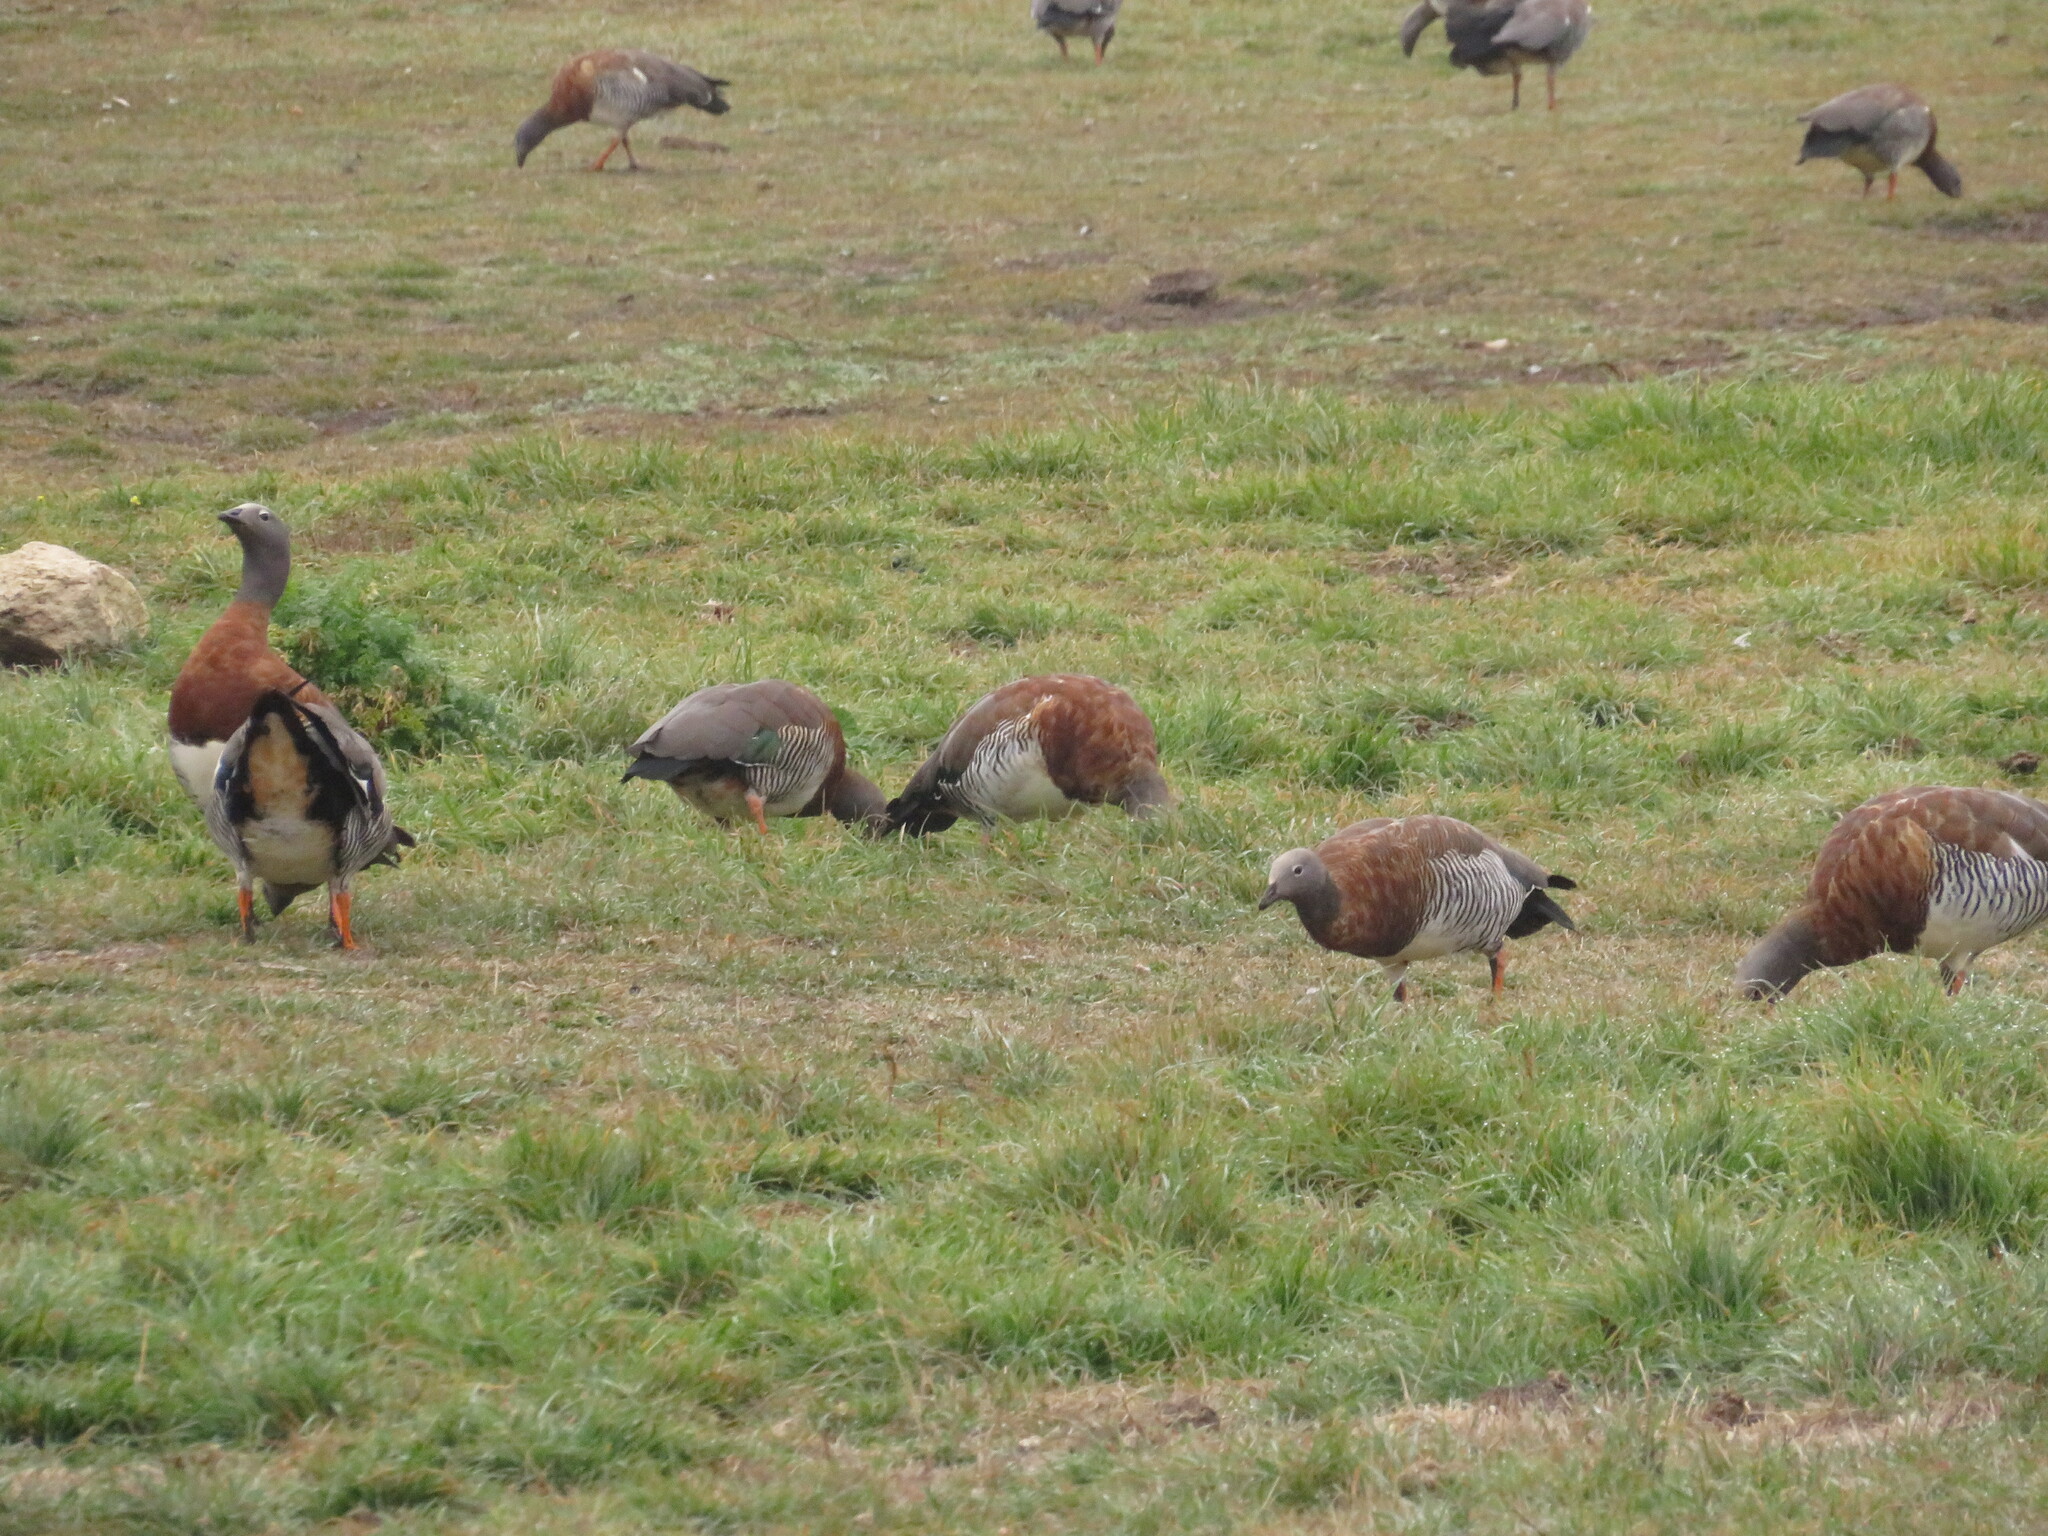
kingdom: Animalia
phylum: Chordata
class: Aves
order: Anseriformes
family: Anatidae
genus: Chloephaga
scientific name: Chloephaga poliocephala
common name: Ashy-headed goose
